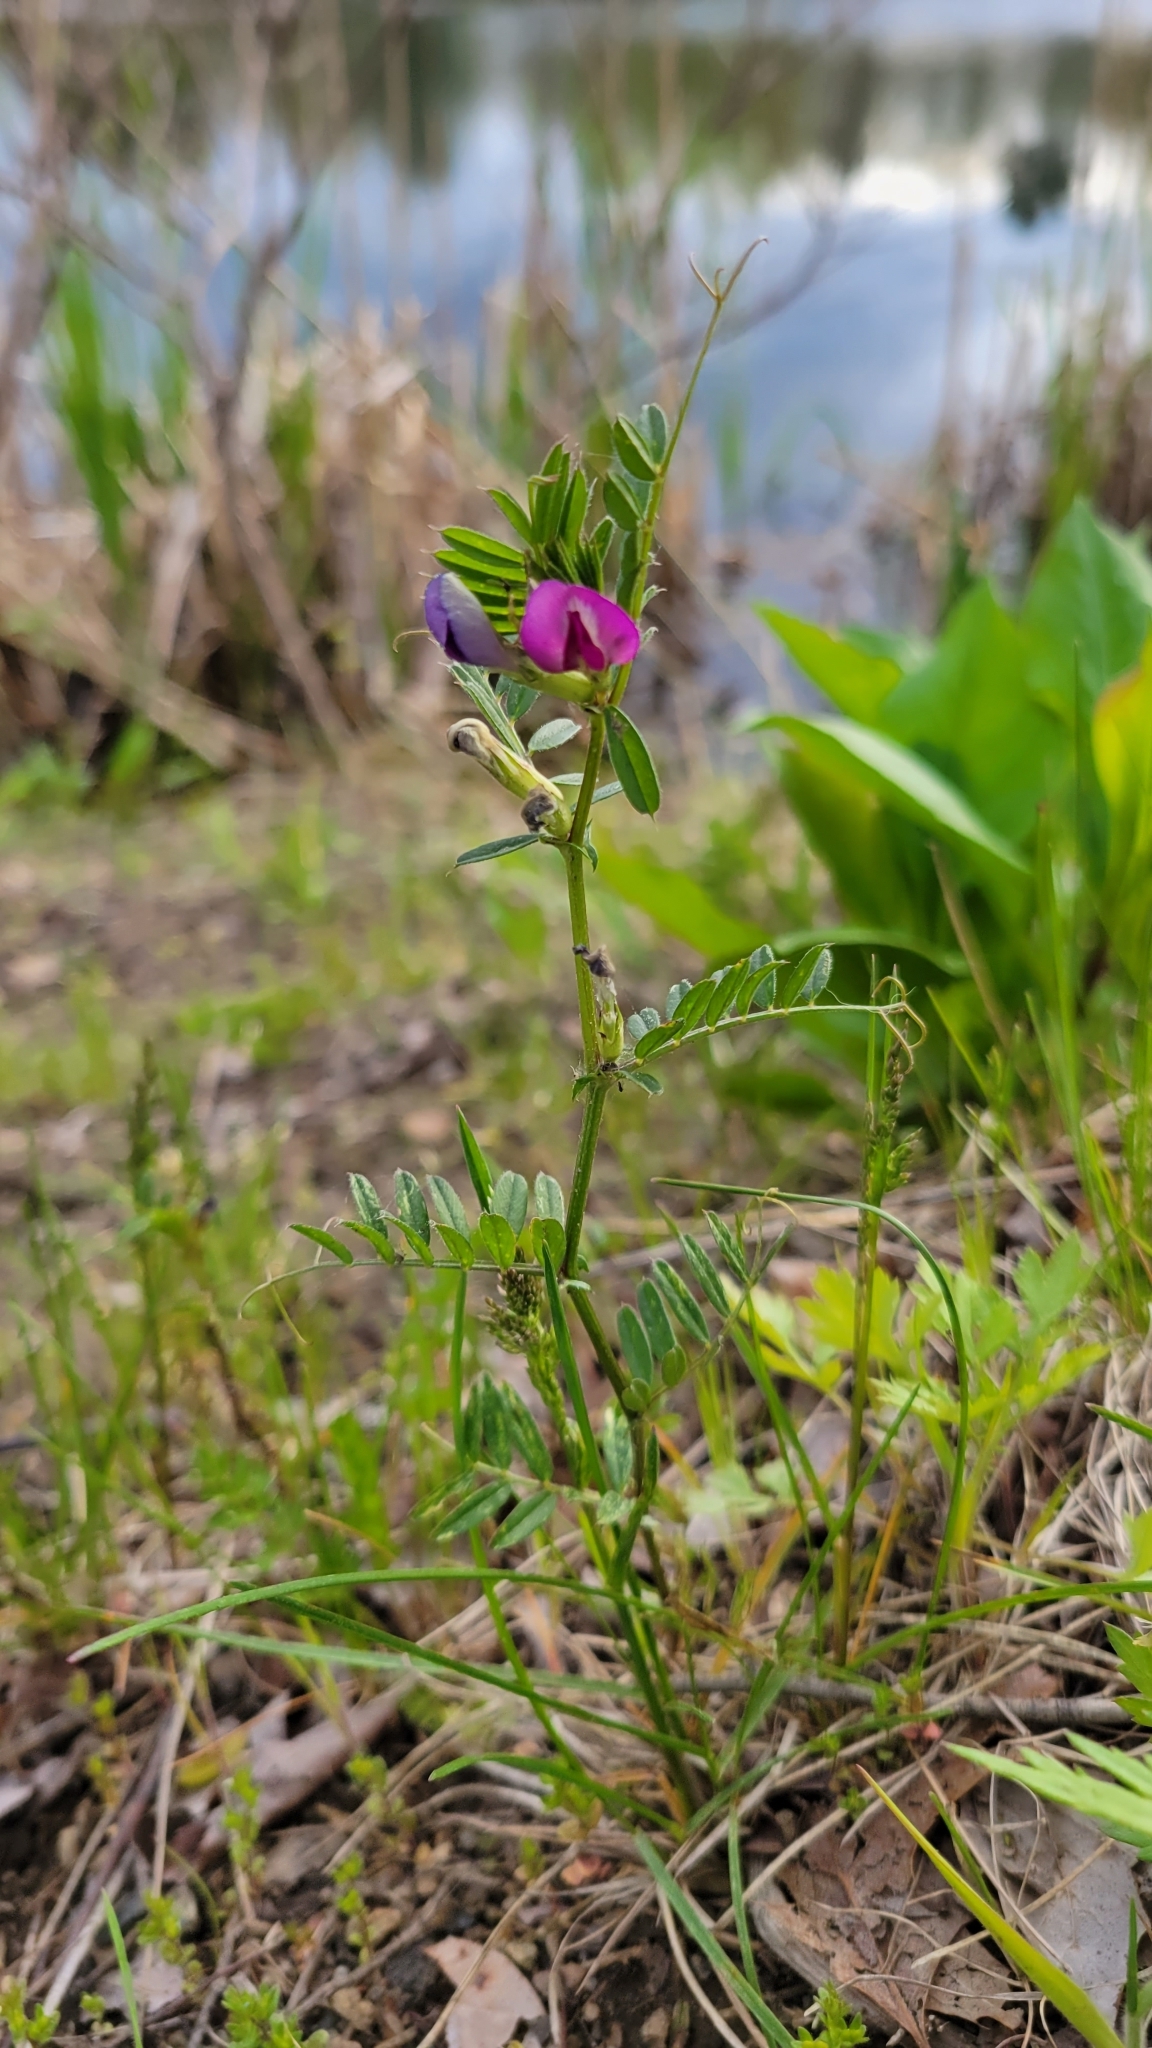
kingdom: Plantae
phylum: Tracheophyta
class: Magnoliopsida
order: Fabales
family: Fabaceae
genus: Vicia
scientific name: Vicia sativa
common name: Garden vetch
